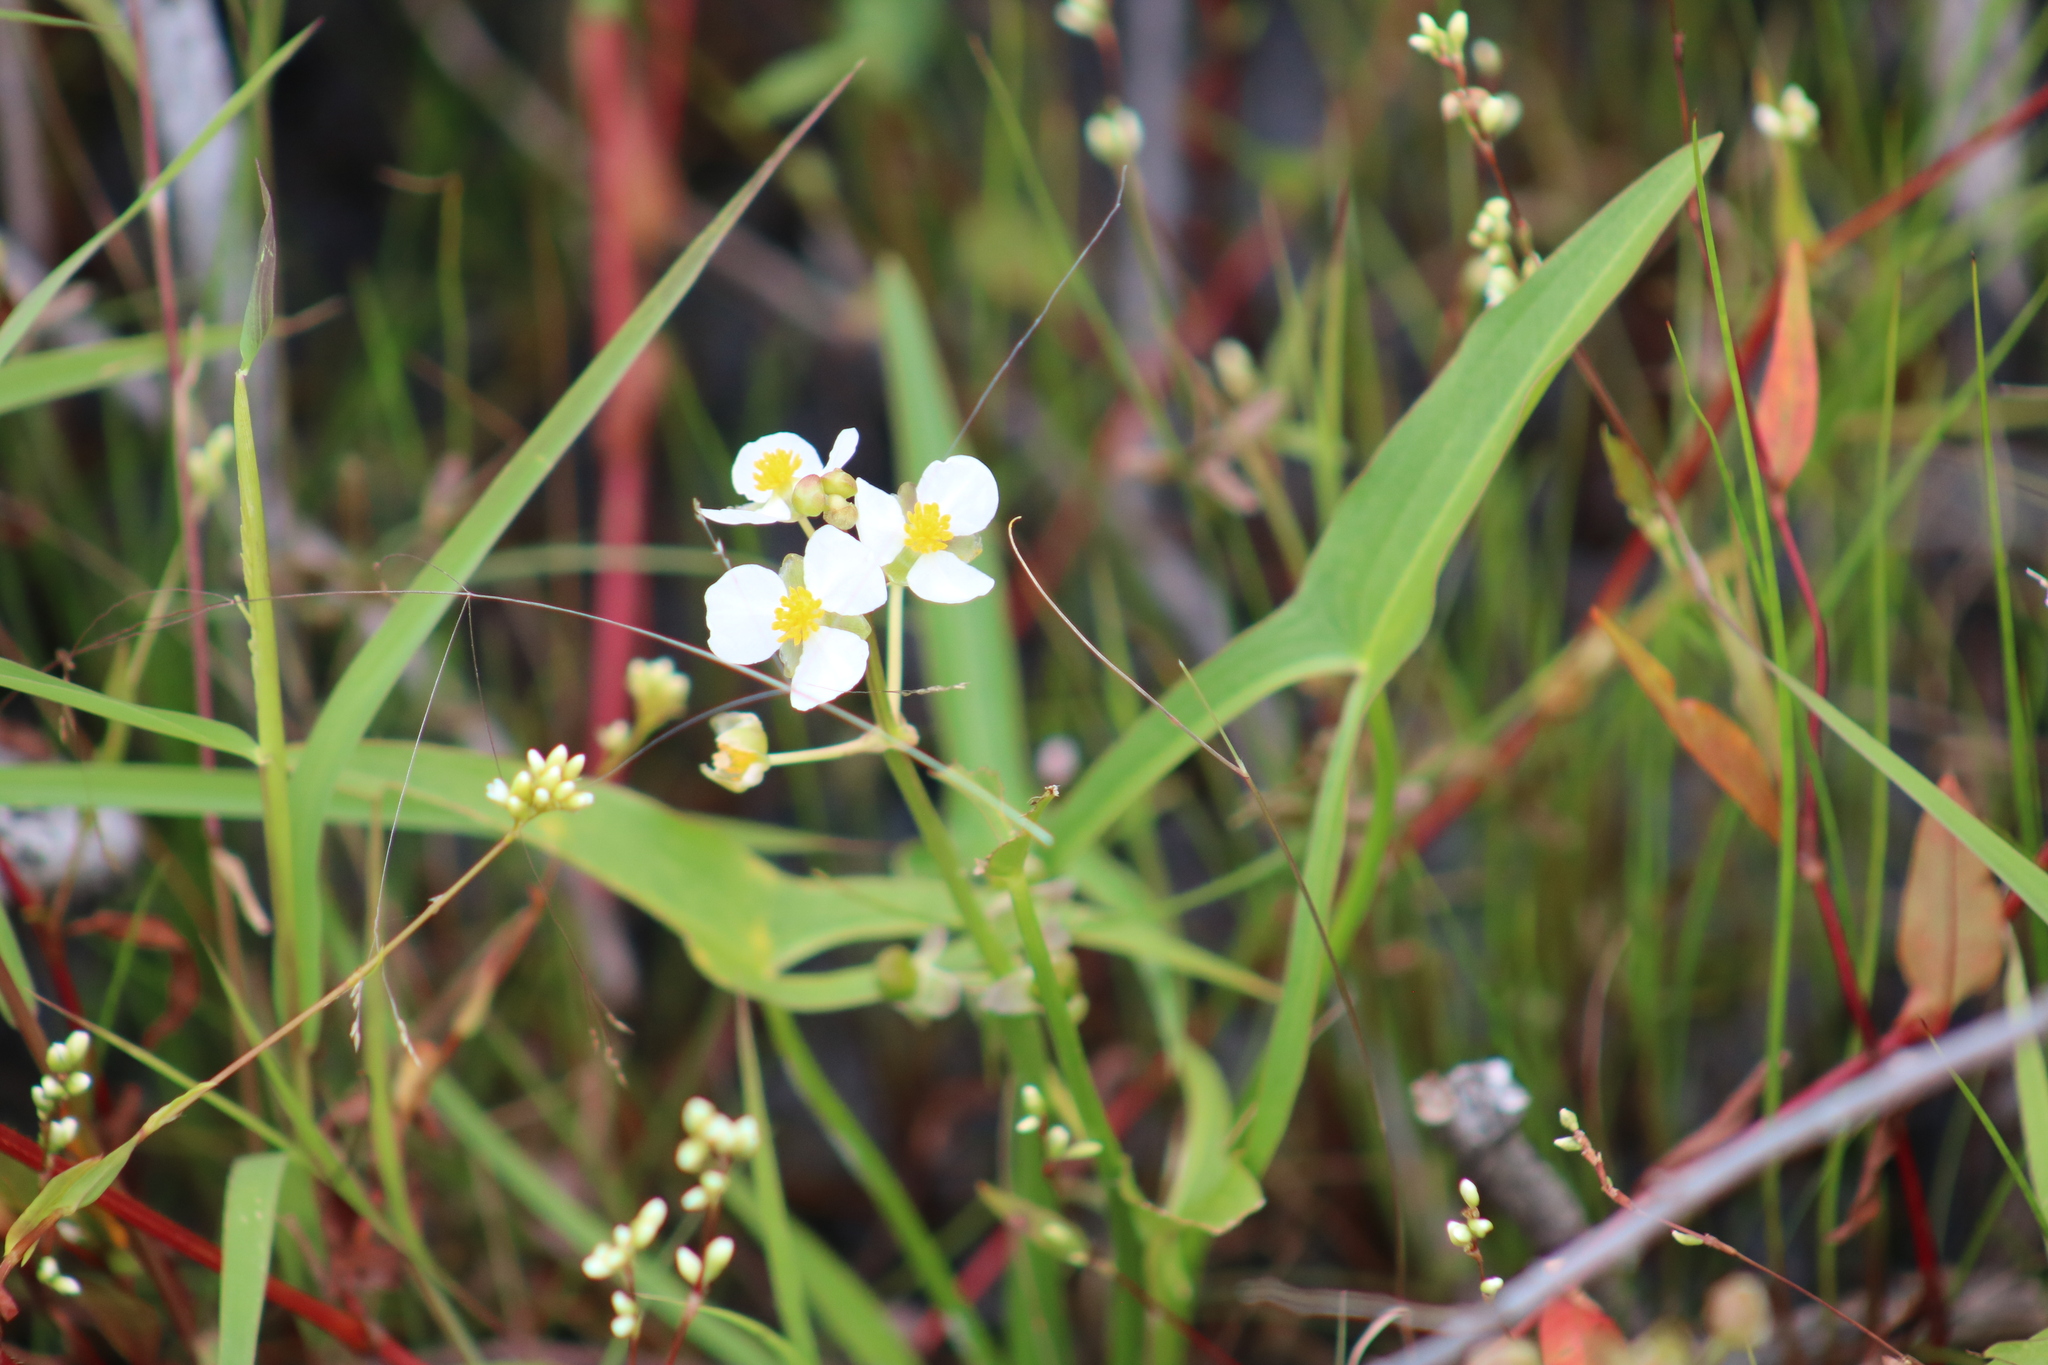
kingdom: Plantae
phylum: Tracheophyta
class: Liliopsida
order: Alismatales
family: Alismataceae
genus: Sagittaria
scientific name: Sagittaria latifolia
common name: Duck-potato
